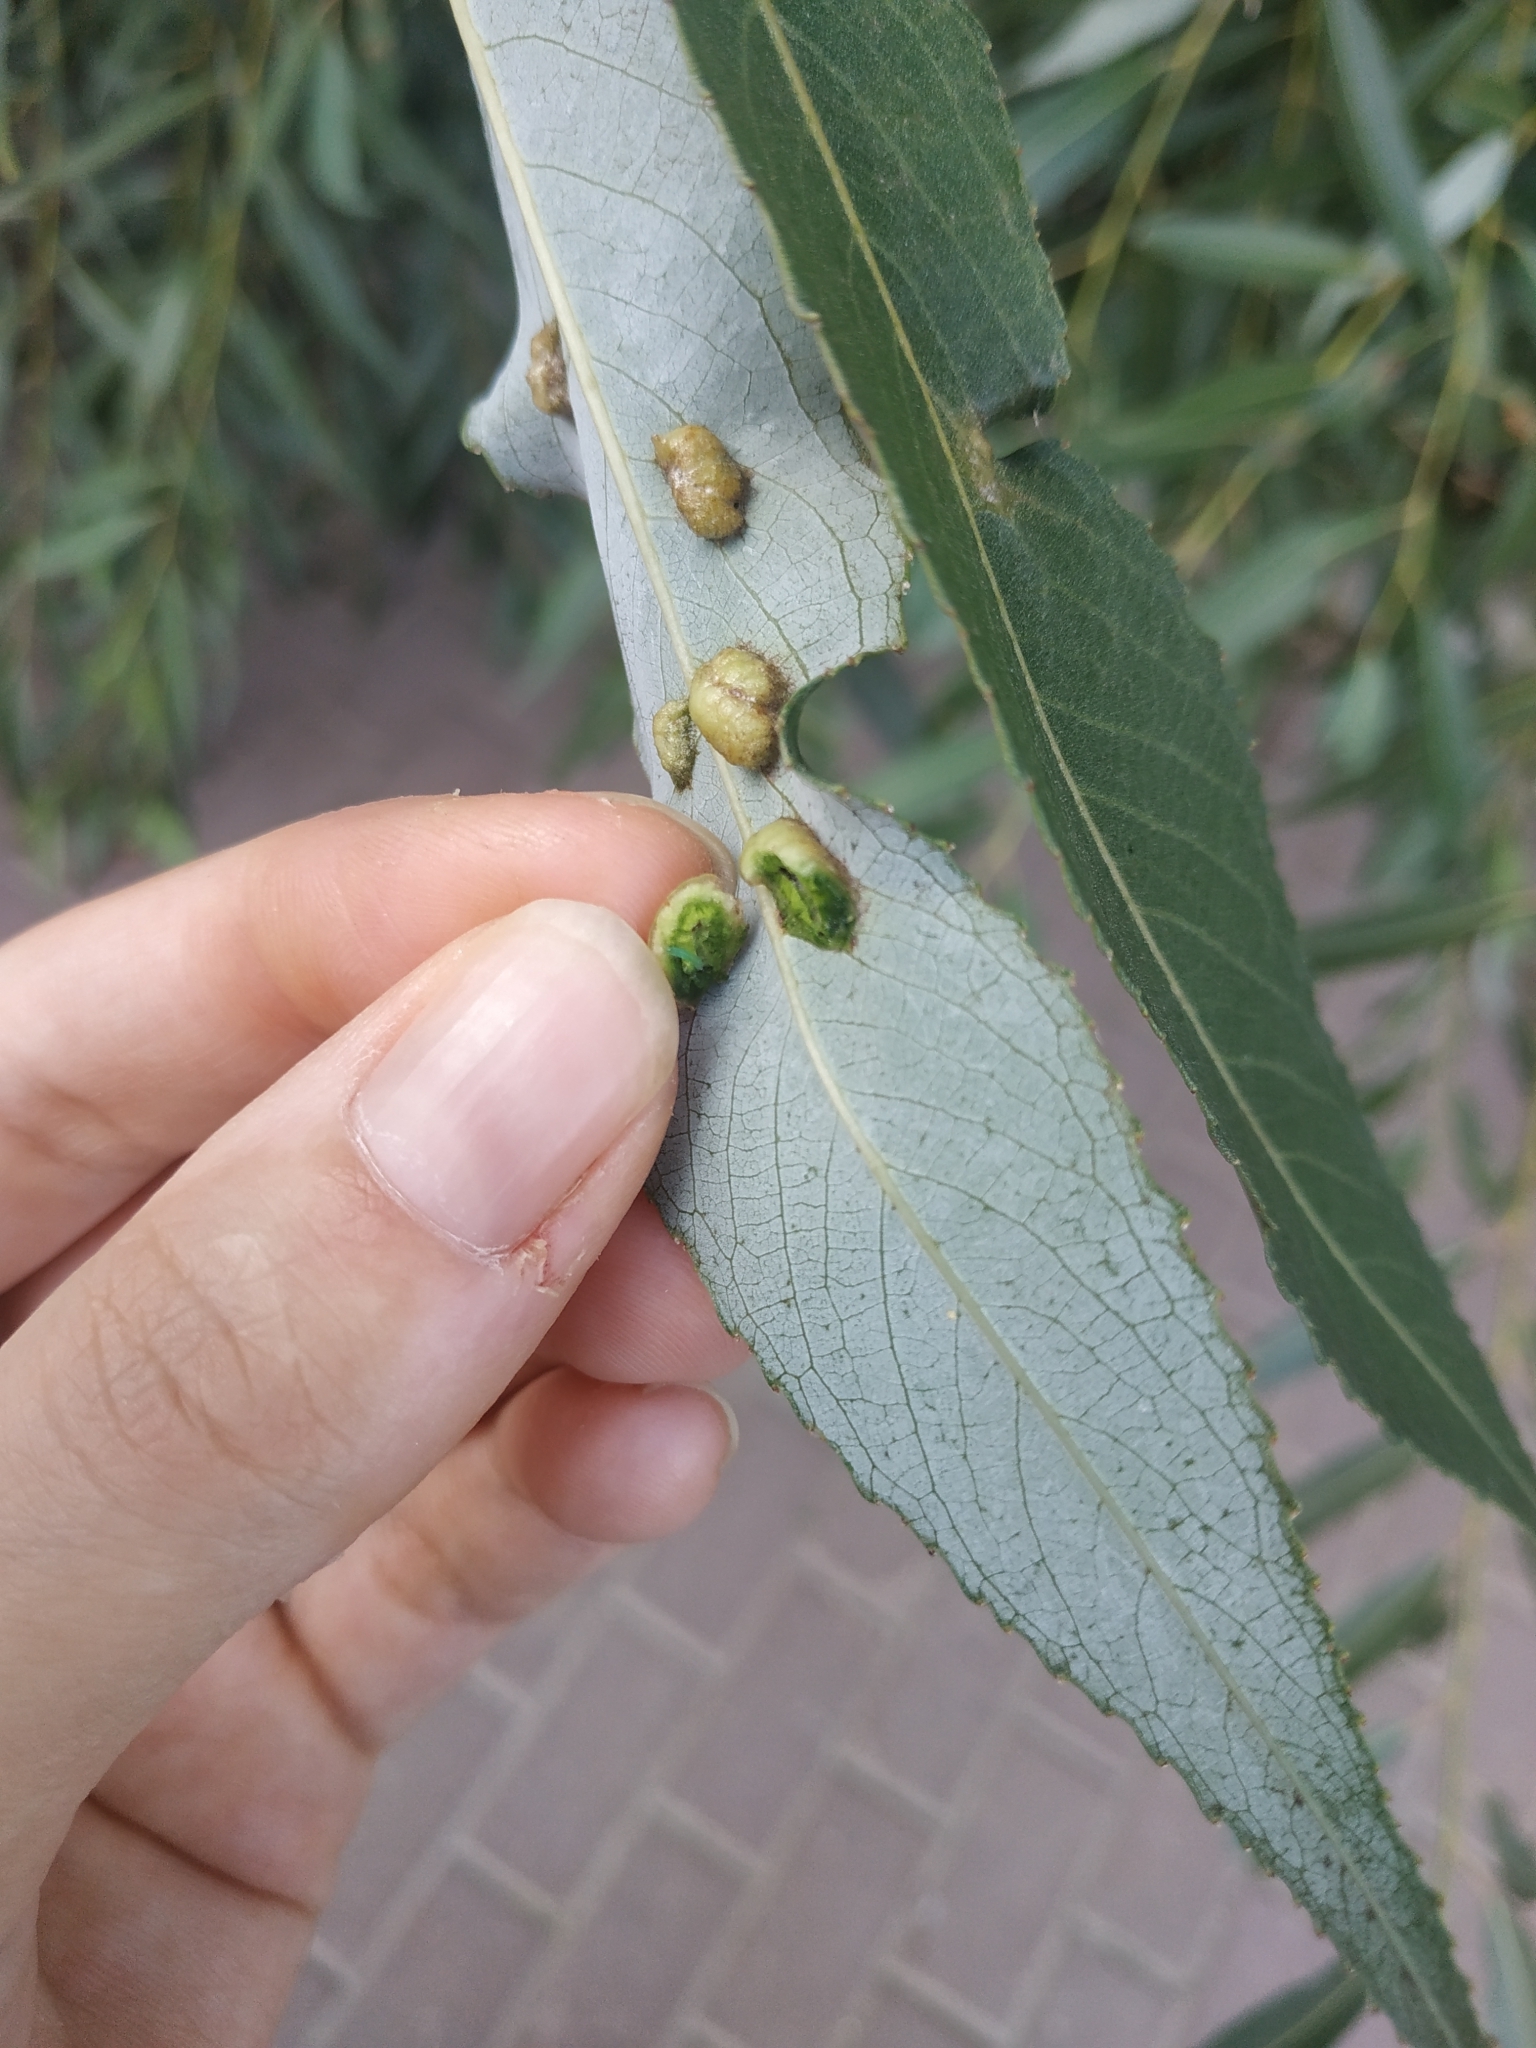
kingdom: Animalia
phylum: Arthropoda
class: Insecta
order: Hymenoptera
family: Tenthredinidae
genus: Pontania
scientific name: Pontania proxima
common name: Common sawfly
